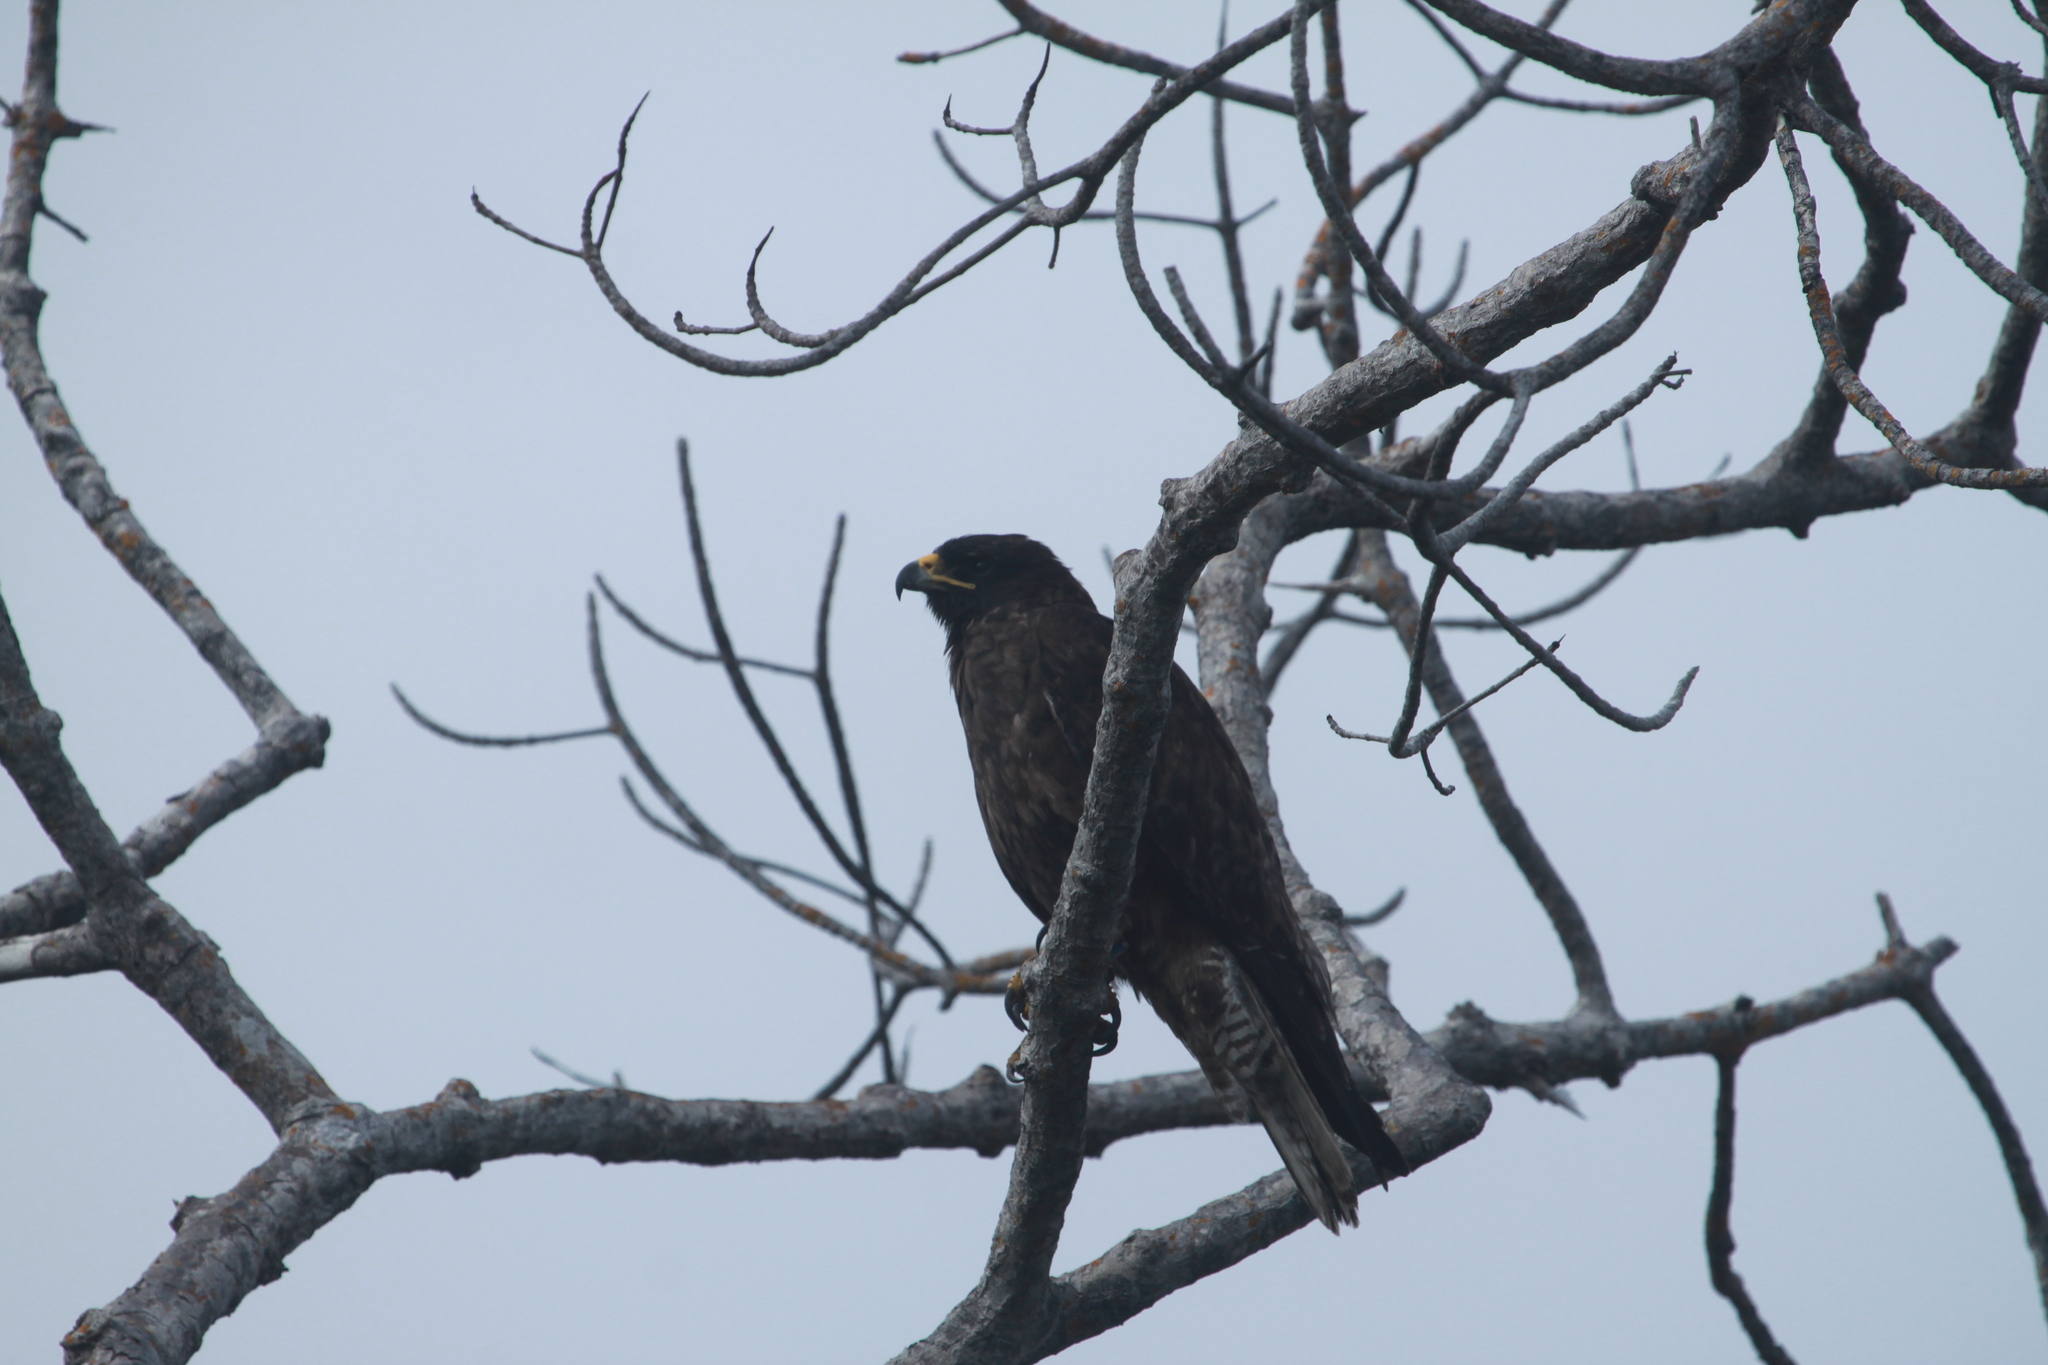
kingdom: Animalia
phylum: Chordata
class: Aves
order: Accipitriformes
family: Accipitridae
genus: Buteo
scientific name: Buteo galapagoensis
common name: Galapagos hawk
